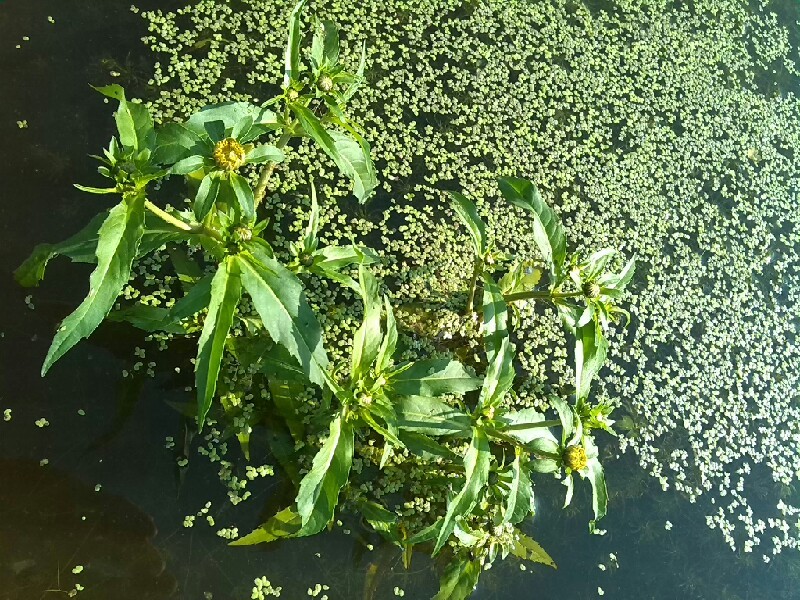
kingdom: Plantae
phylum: Tracheophyta
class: Magnoliopsida
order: Asterales
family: Asteraceae
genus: Bidens
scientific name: Bidens cernua
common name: Nodding bur-marigold
